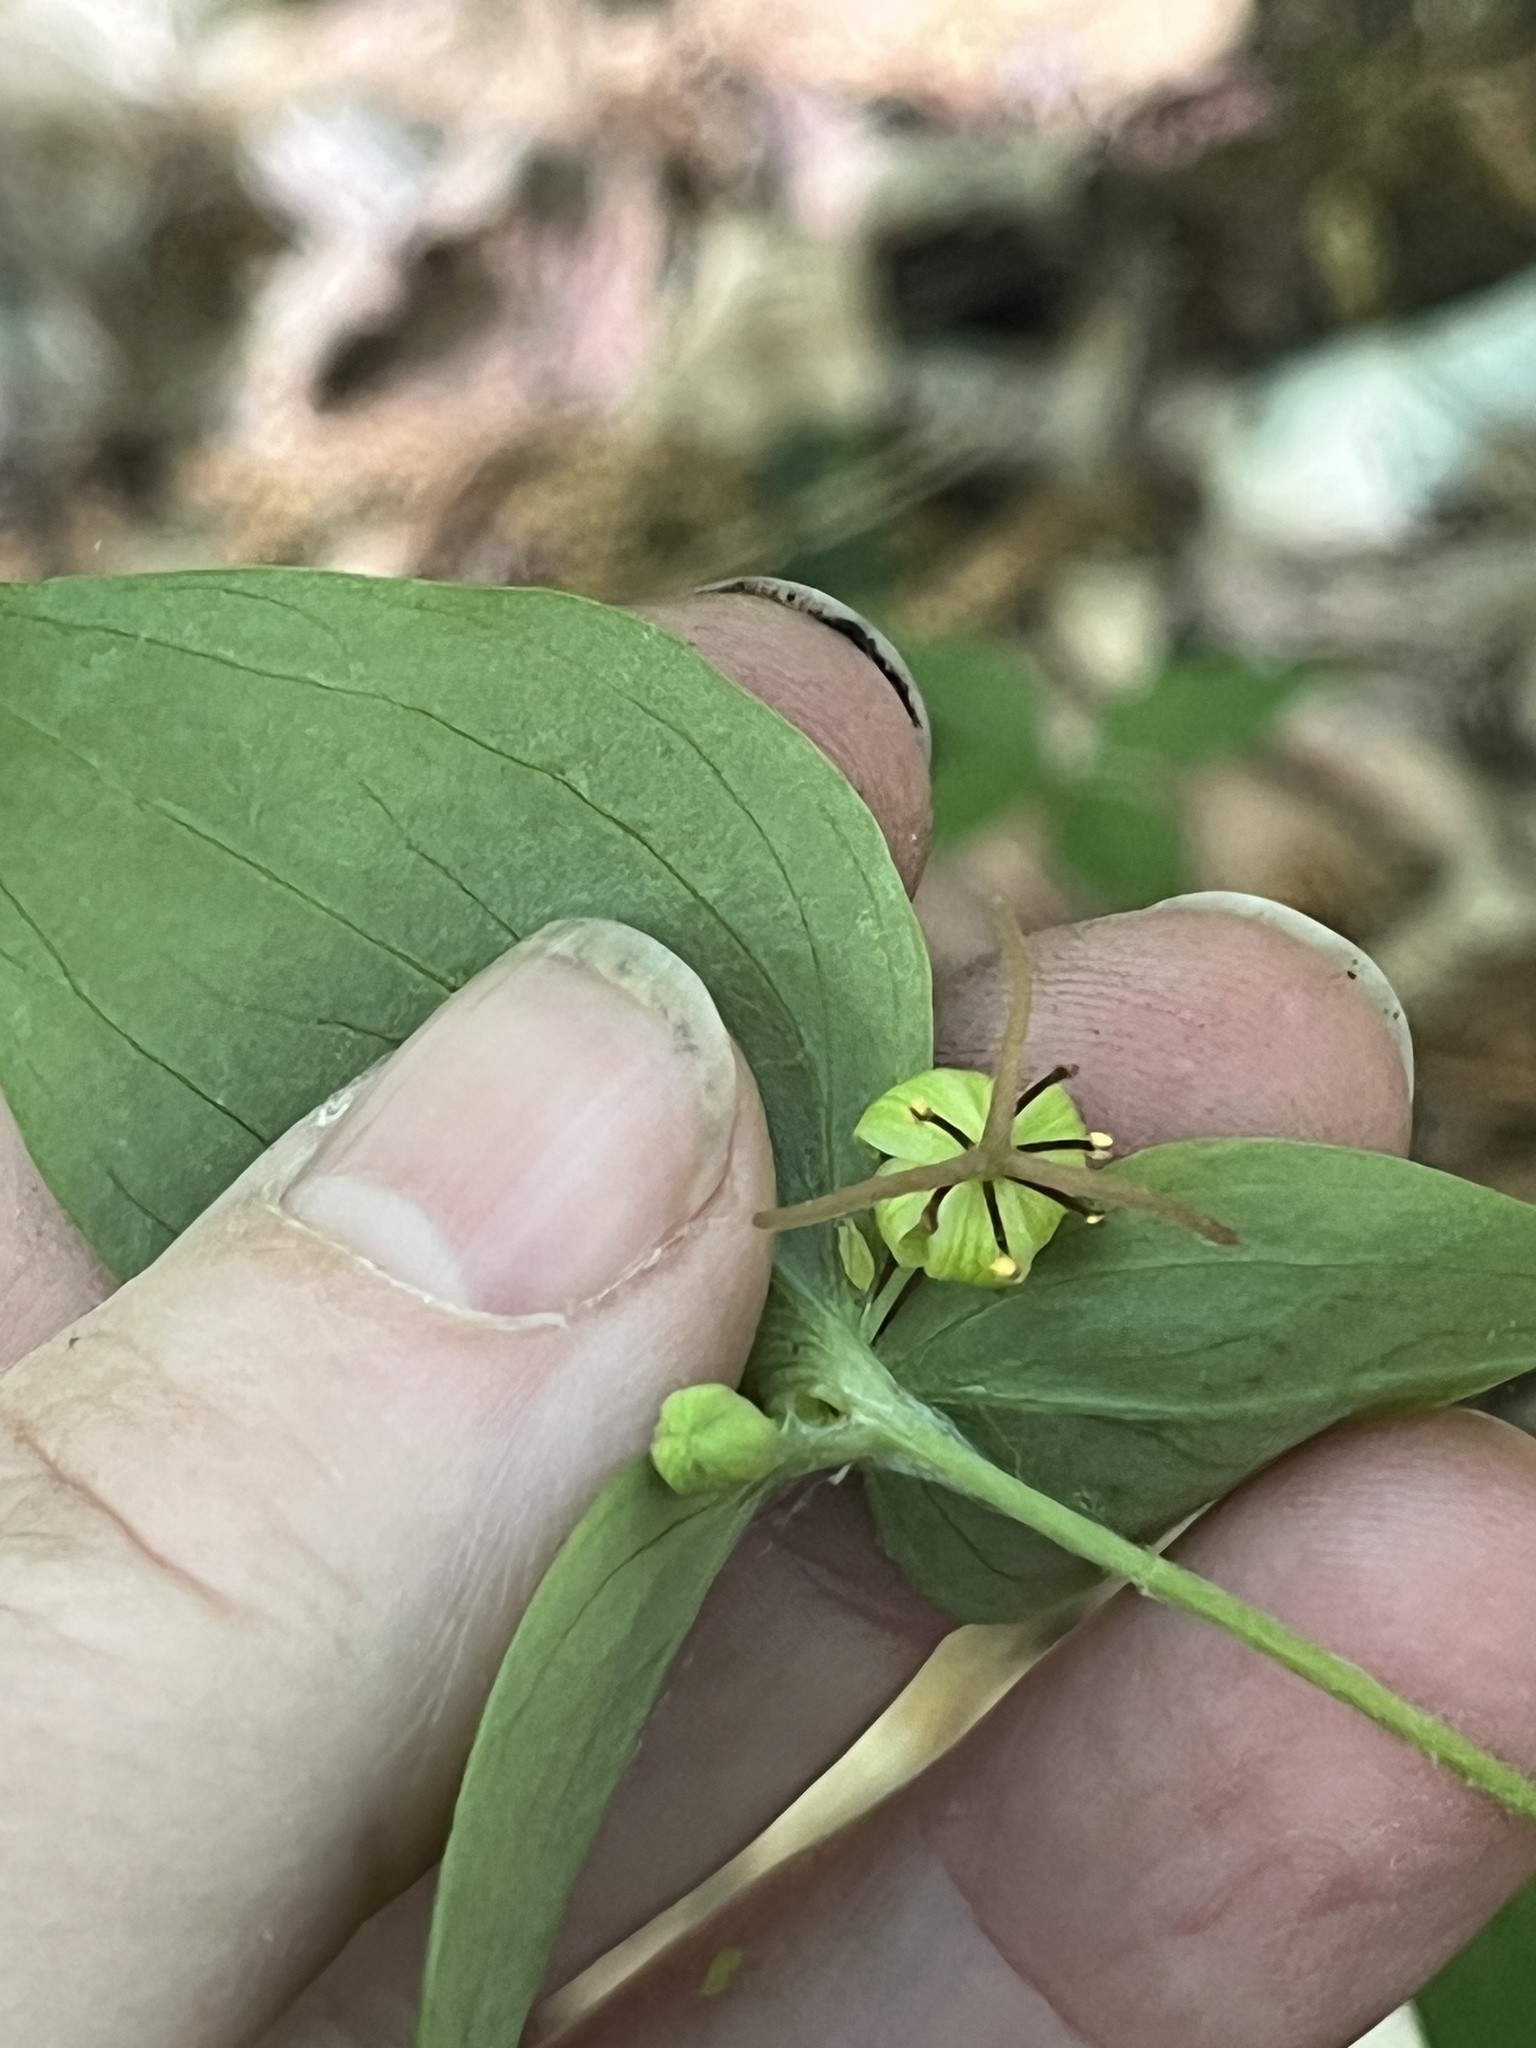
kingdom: Plantae
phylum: Tracheophyta
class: Liliopsida
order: Liliales
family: Liliaceae
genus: Medeola
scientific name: Medeola virginiana
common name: Indian cucumber-root
